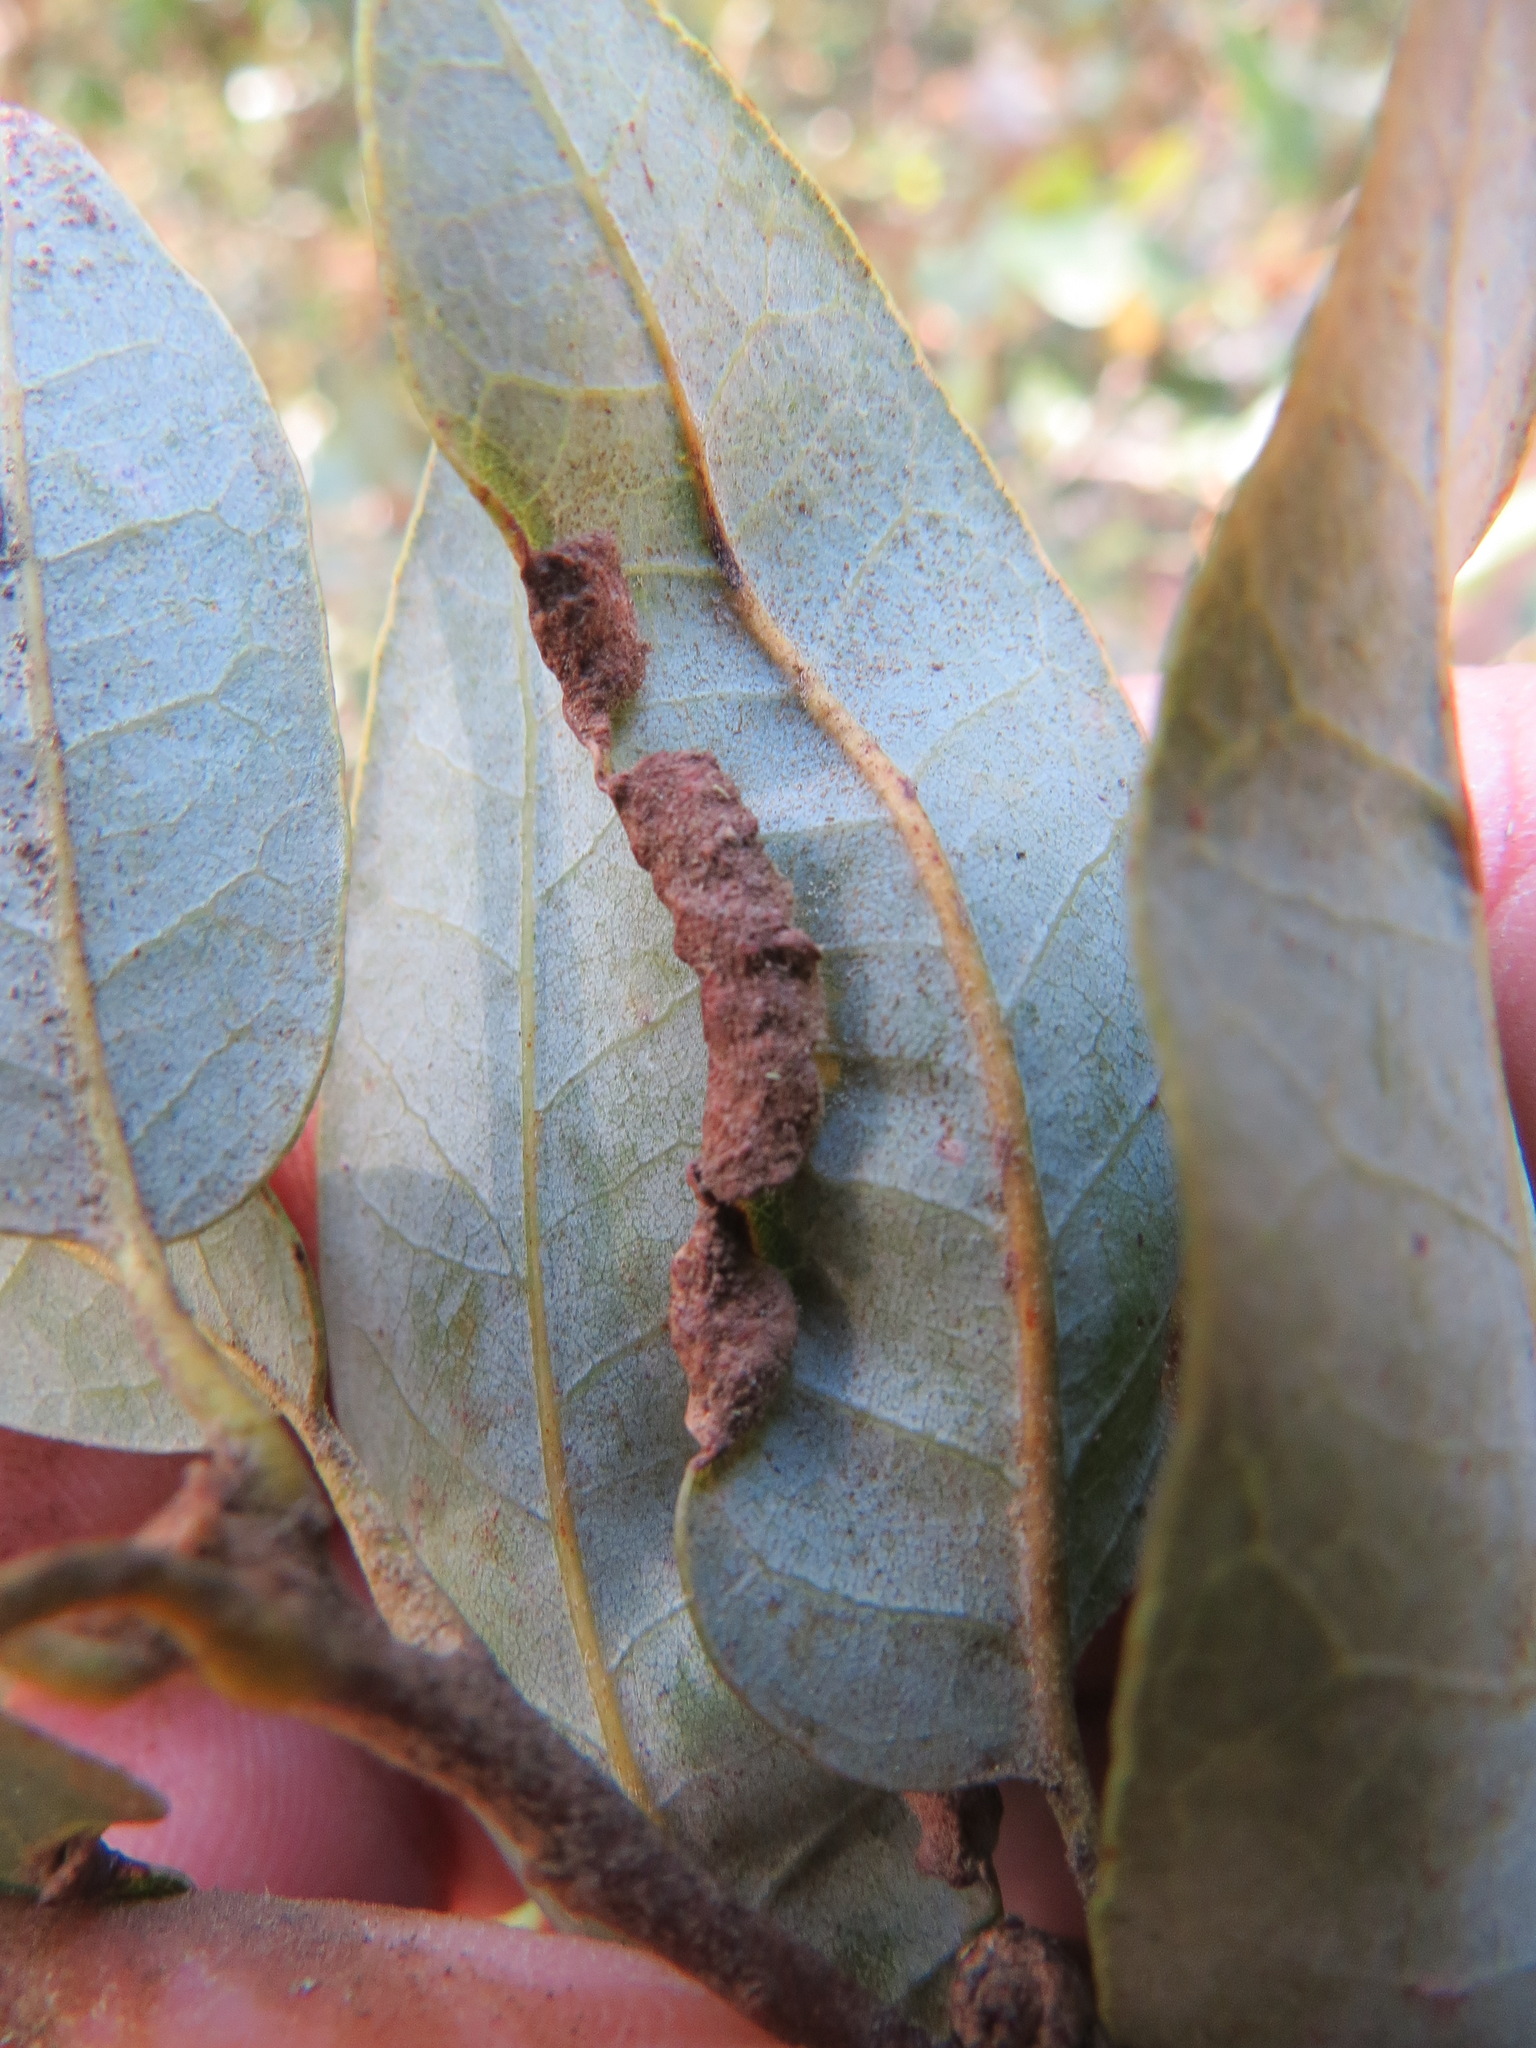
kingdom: Animalia
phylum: Arthropoda
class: Insecta
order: Diptera
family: Cecidomyiidae
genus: Dasineura
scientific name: Dasineura silvestrii
